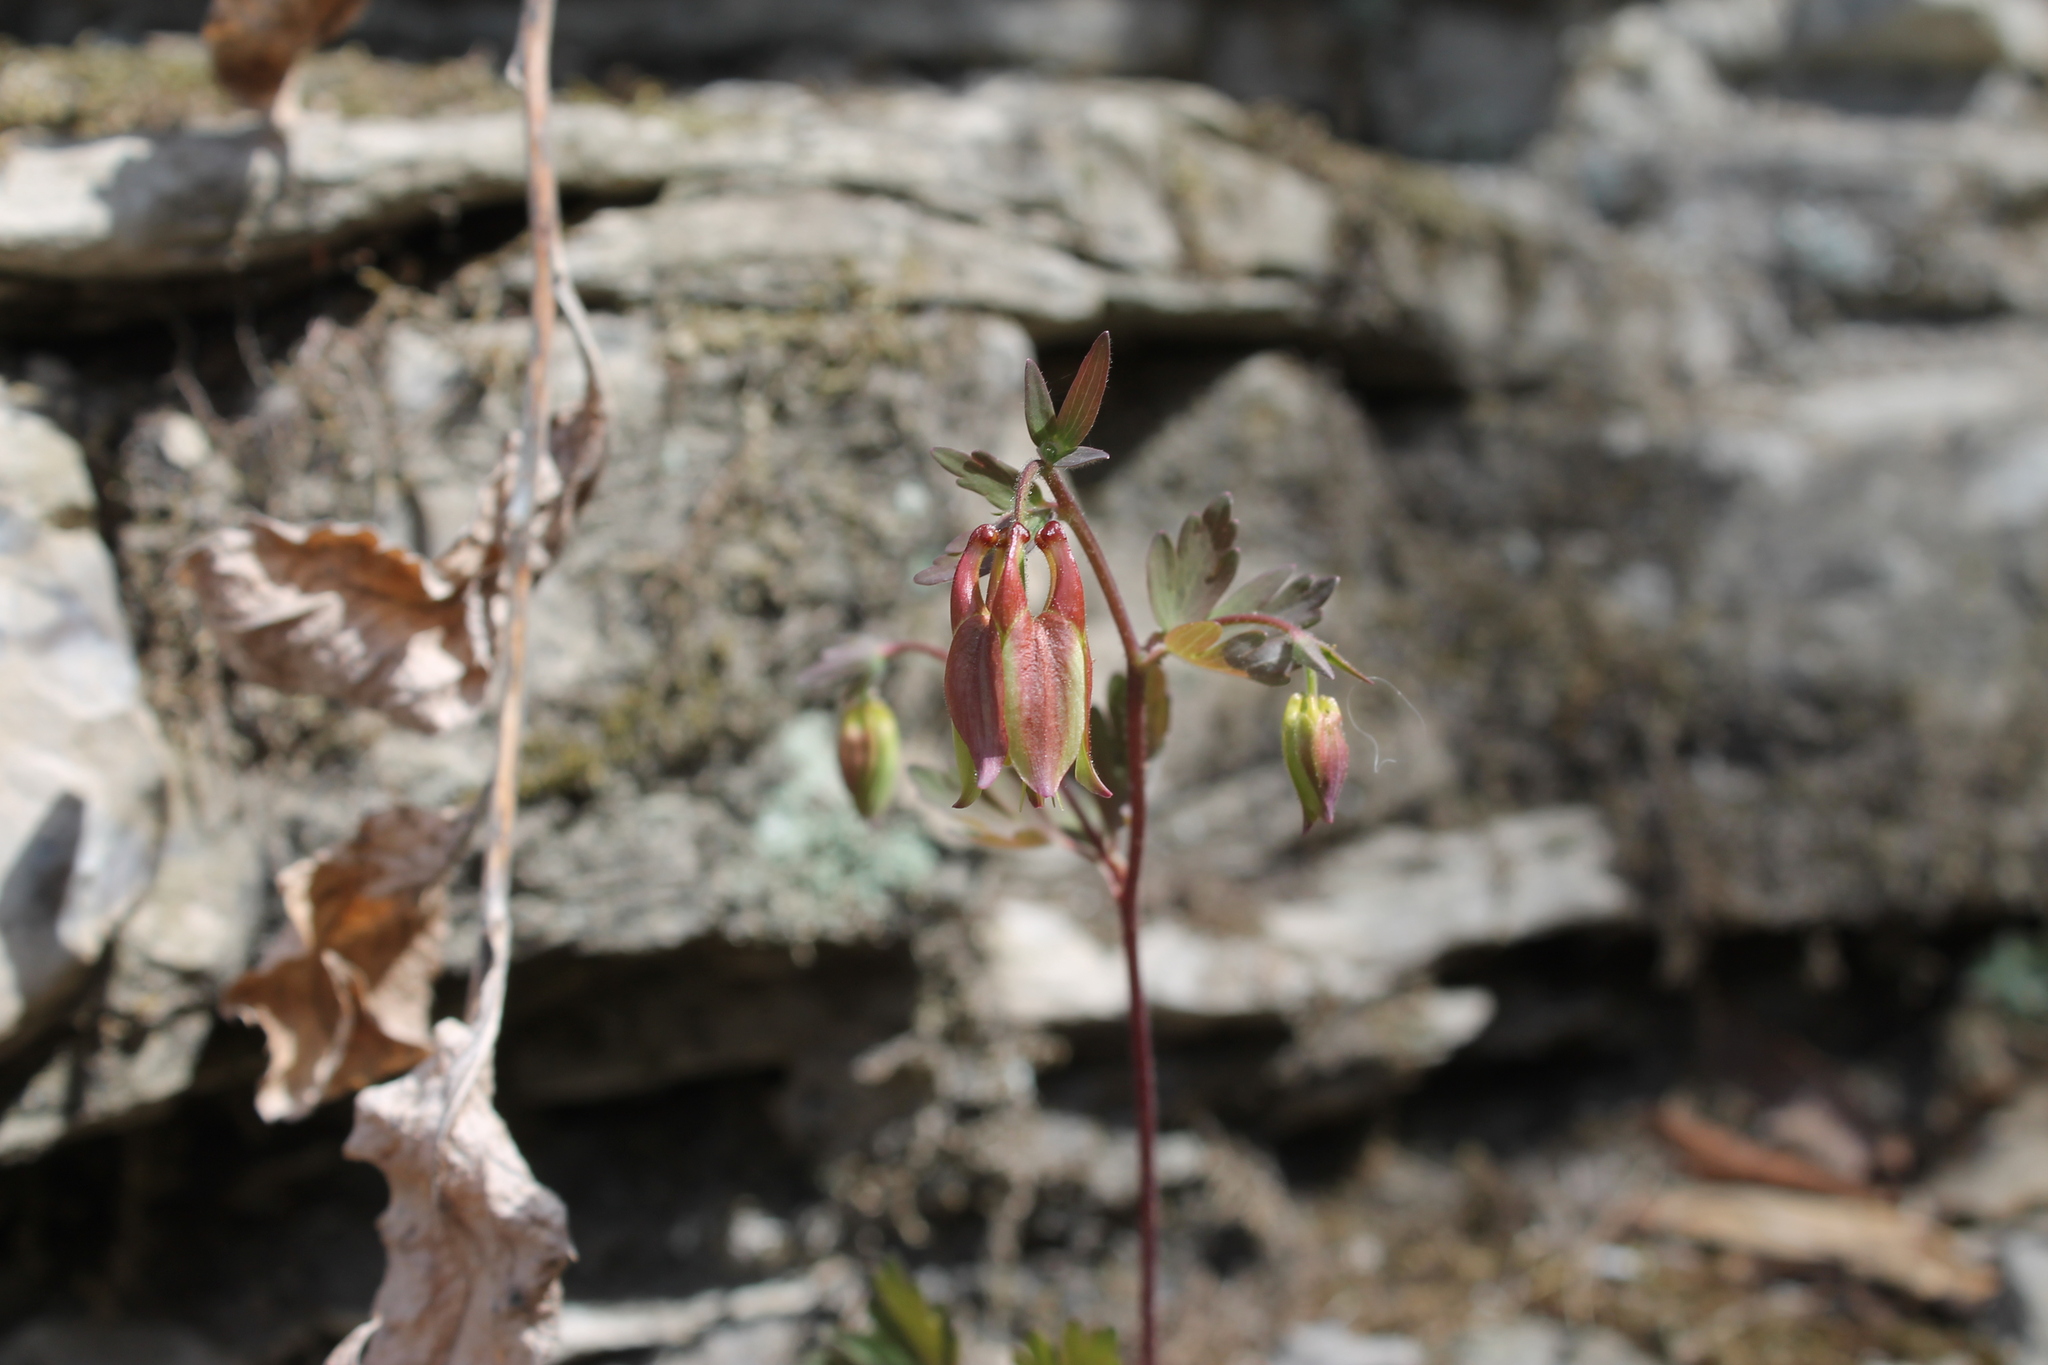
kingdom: Plantae
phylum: Tracheophyta
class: Magnoliopsida
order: Ranunculales
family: Ranunculaceae
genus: Aquilegia
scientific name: Aquilegia canadensis
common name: American columbine
